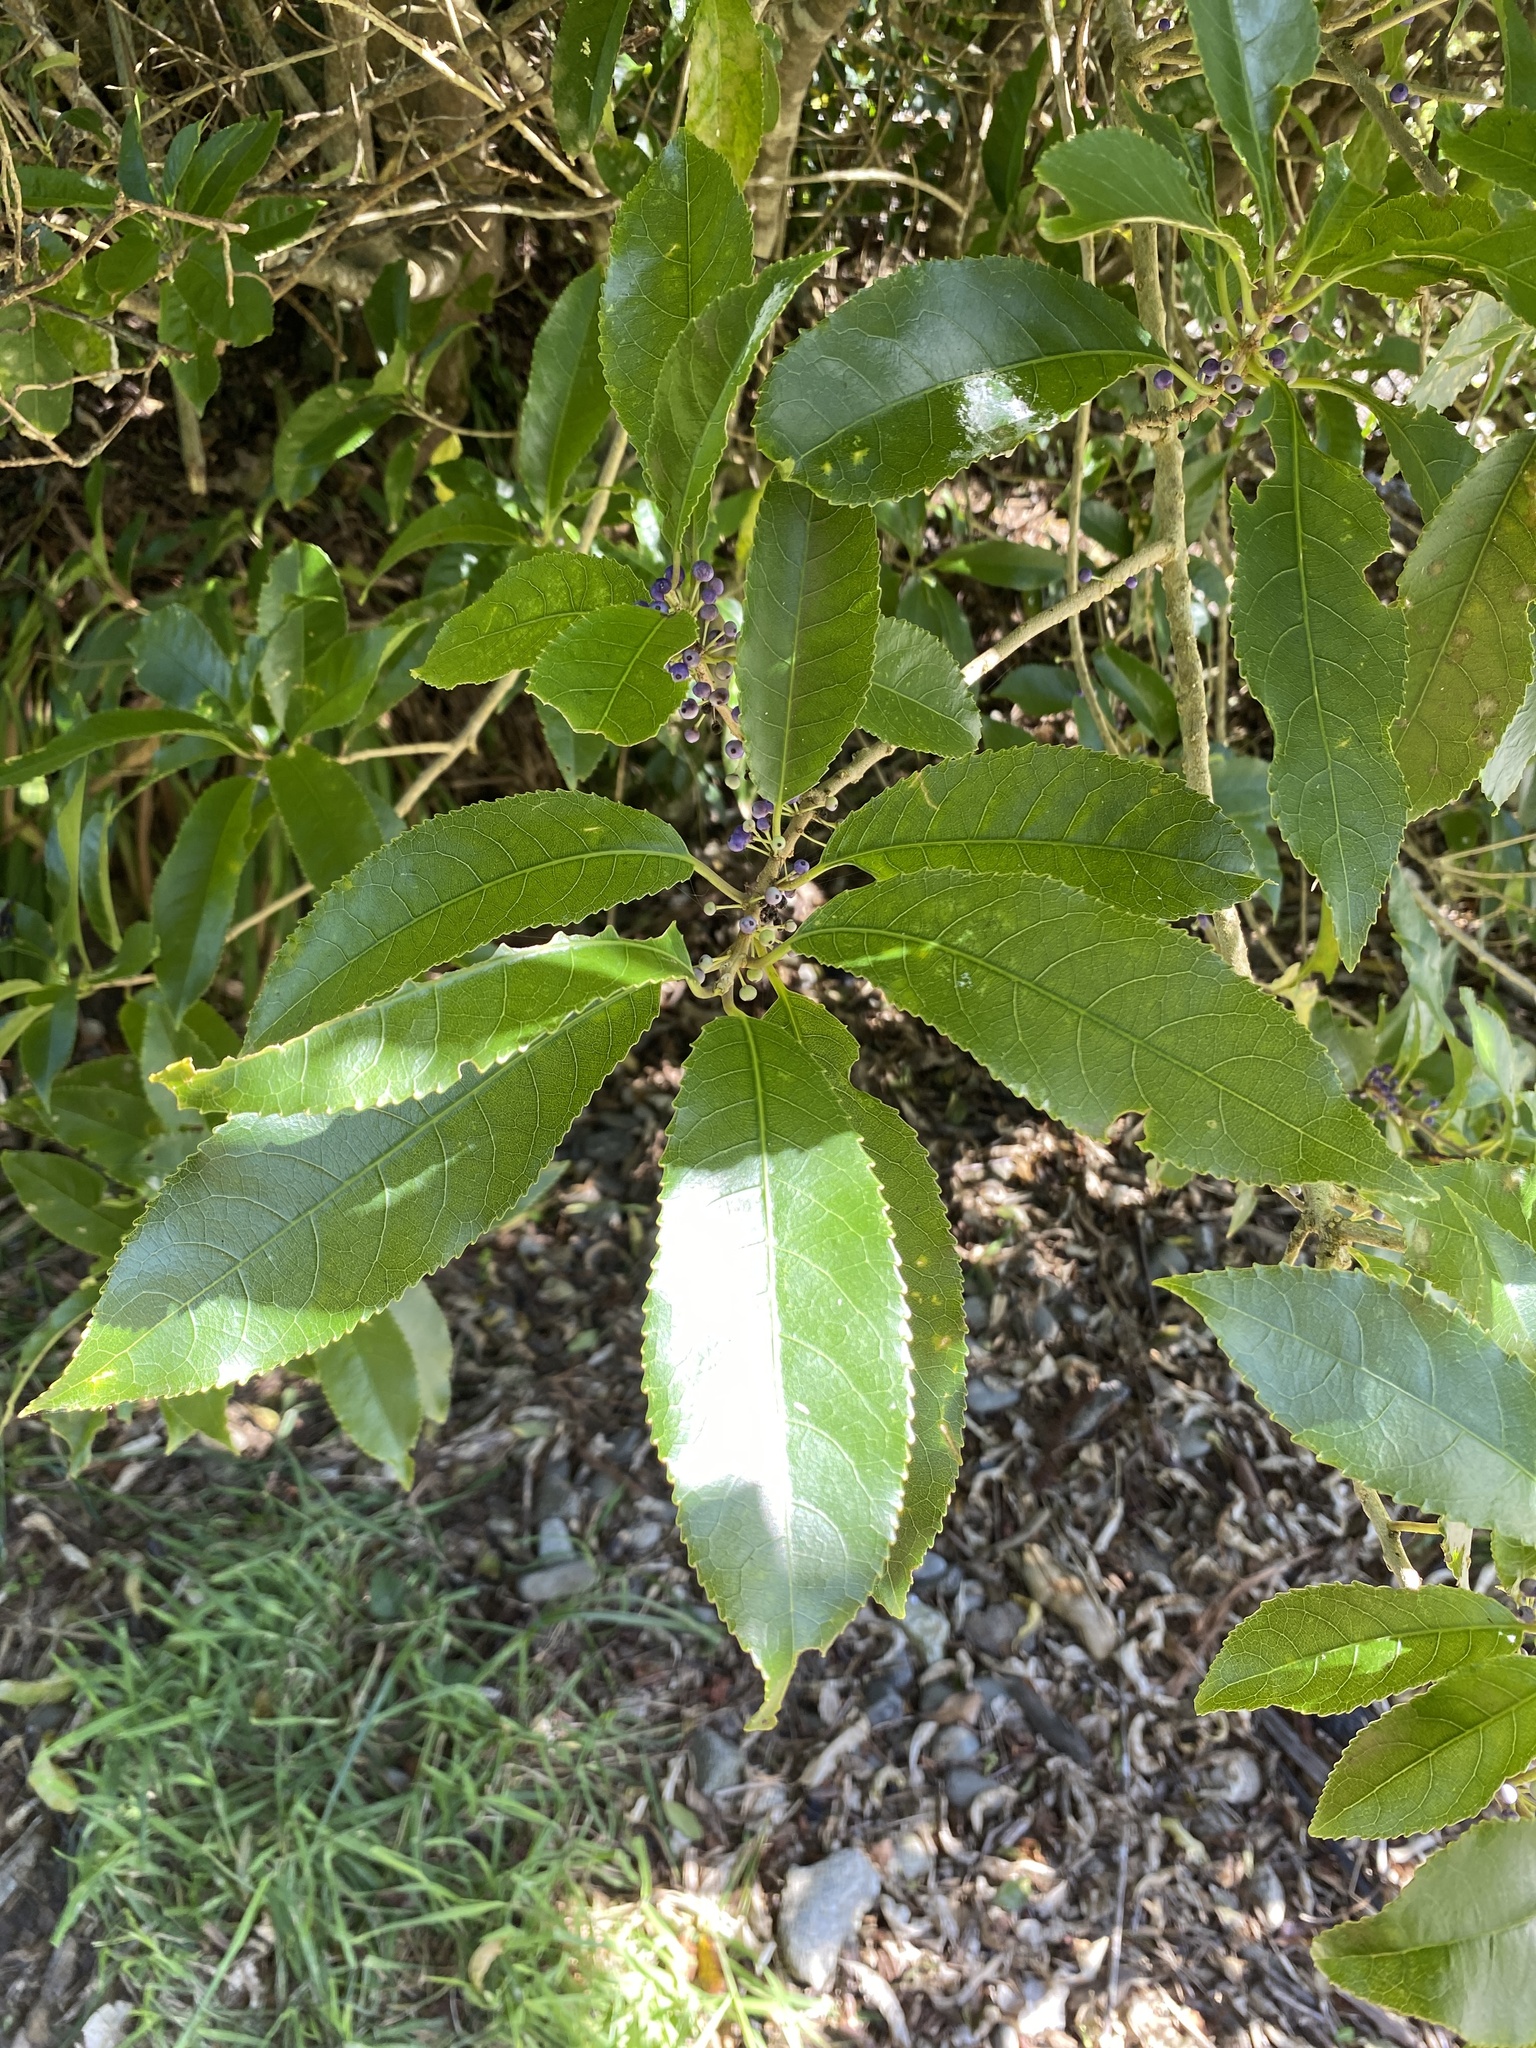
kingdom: Plantae
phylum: Tracheophyta
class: Magnoliopsida
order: Malpighiales
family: Violaceae
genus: Melicytus
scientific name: Melicytus ramiflorus
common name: Mahoe
